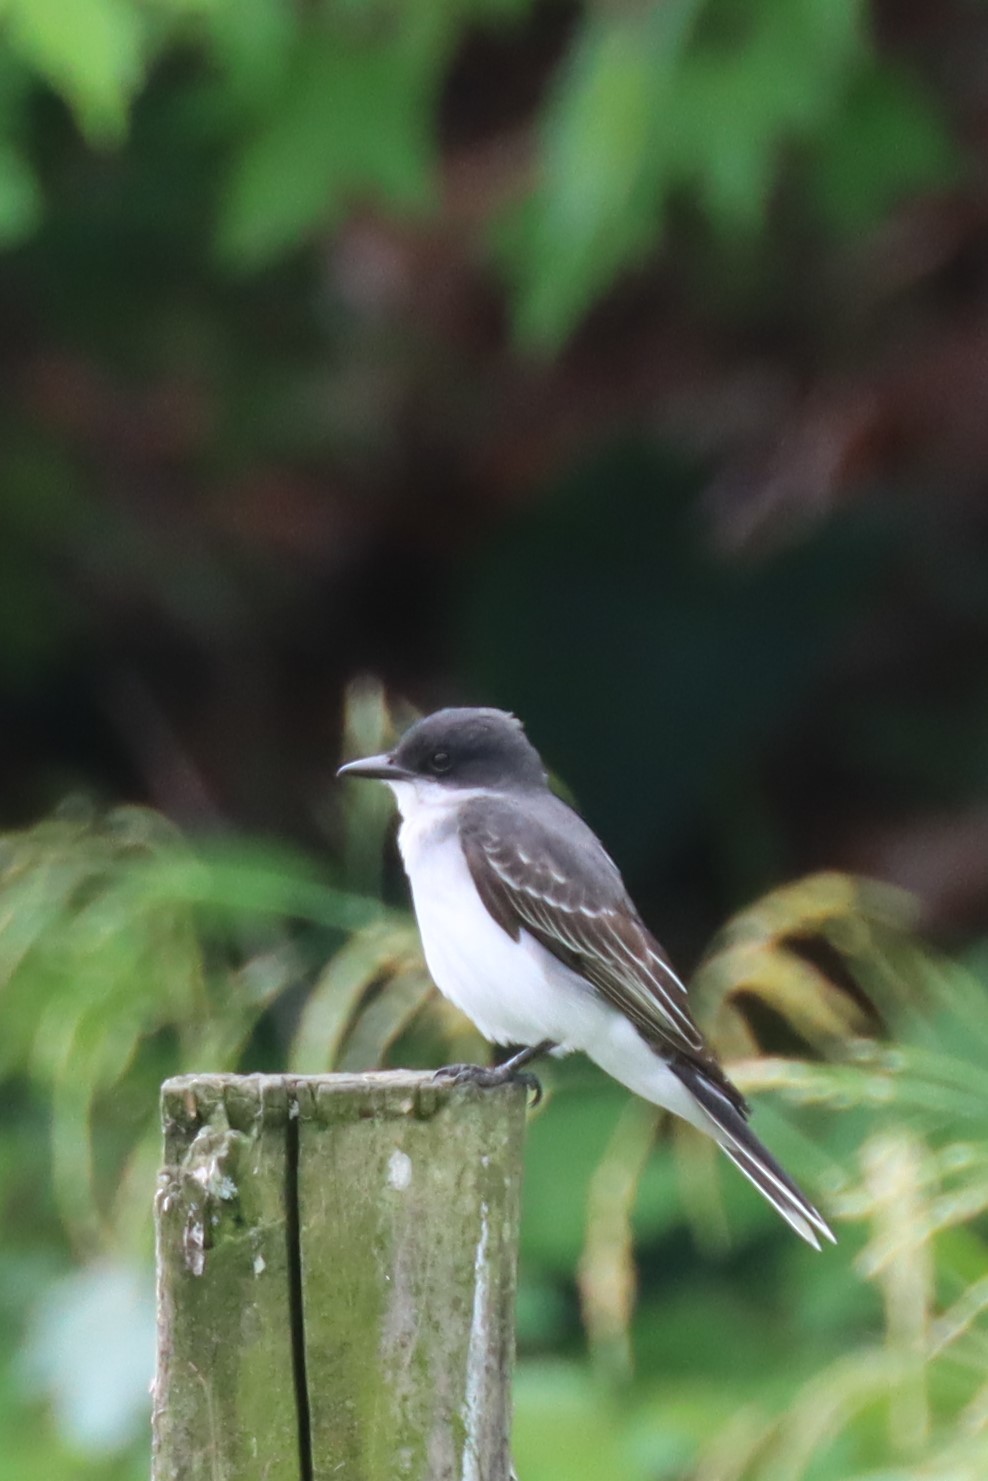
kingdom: Animalia
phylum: Chordata
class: Aves
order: Passeriformes
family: Tyrannidae
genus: Tyrannus
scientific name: Tyrannus tyrannus
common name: Eastern kingbird
